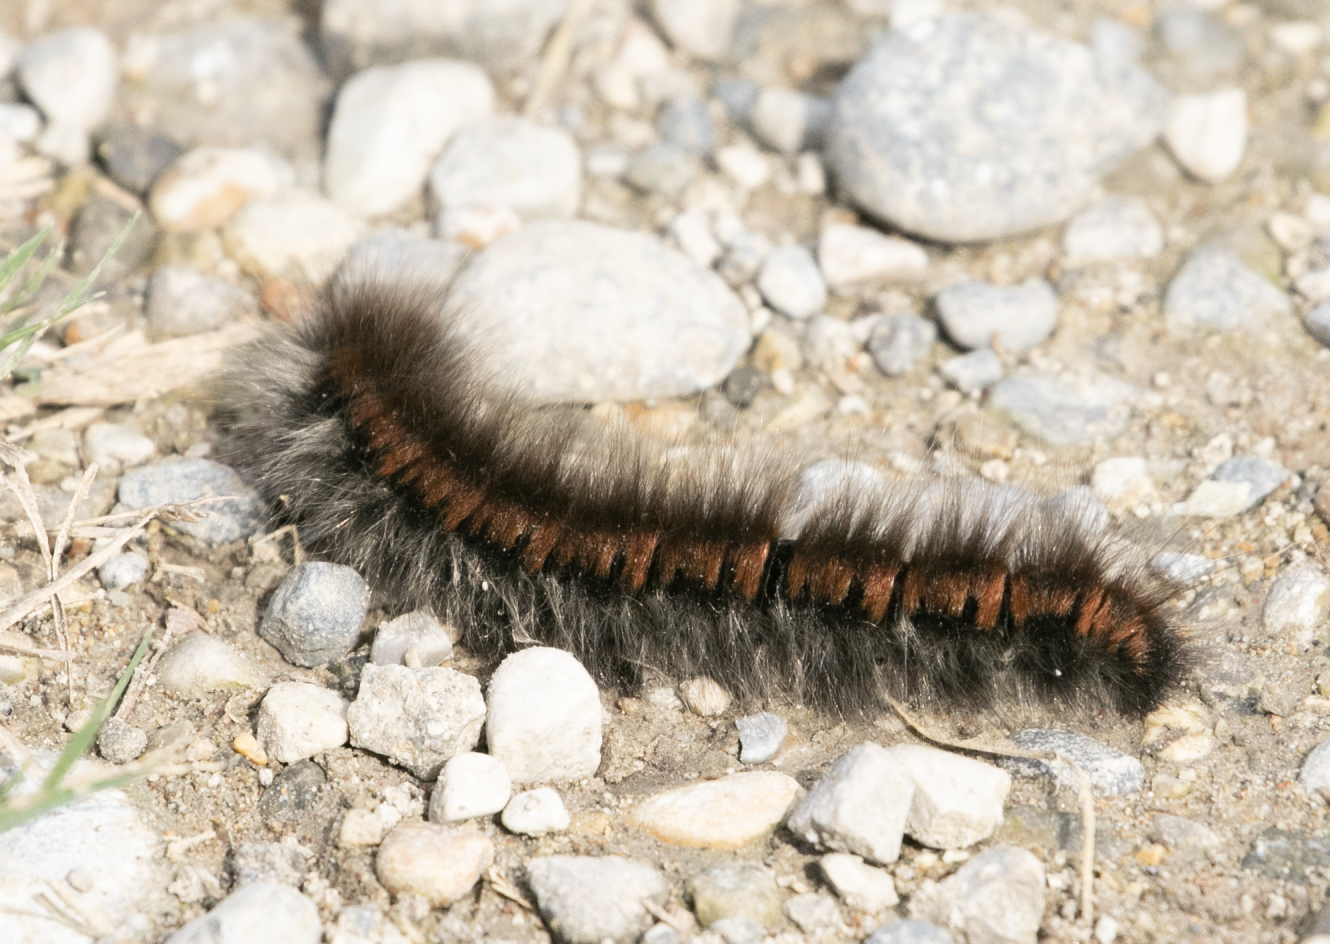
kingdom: Animalia
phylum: Arthropoda
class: Insecta
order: Lepidoptera
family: Lasiocampidae
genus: Macrothylacia
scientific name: Macrothylacia rubi
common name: Fox moth
